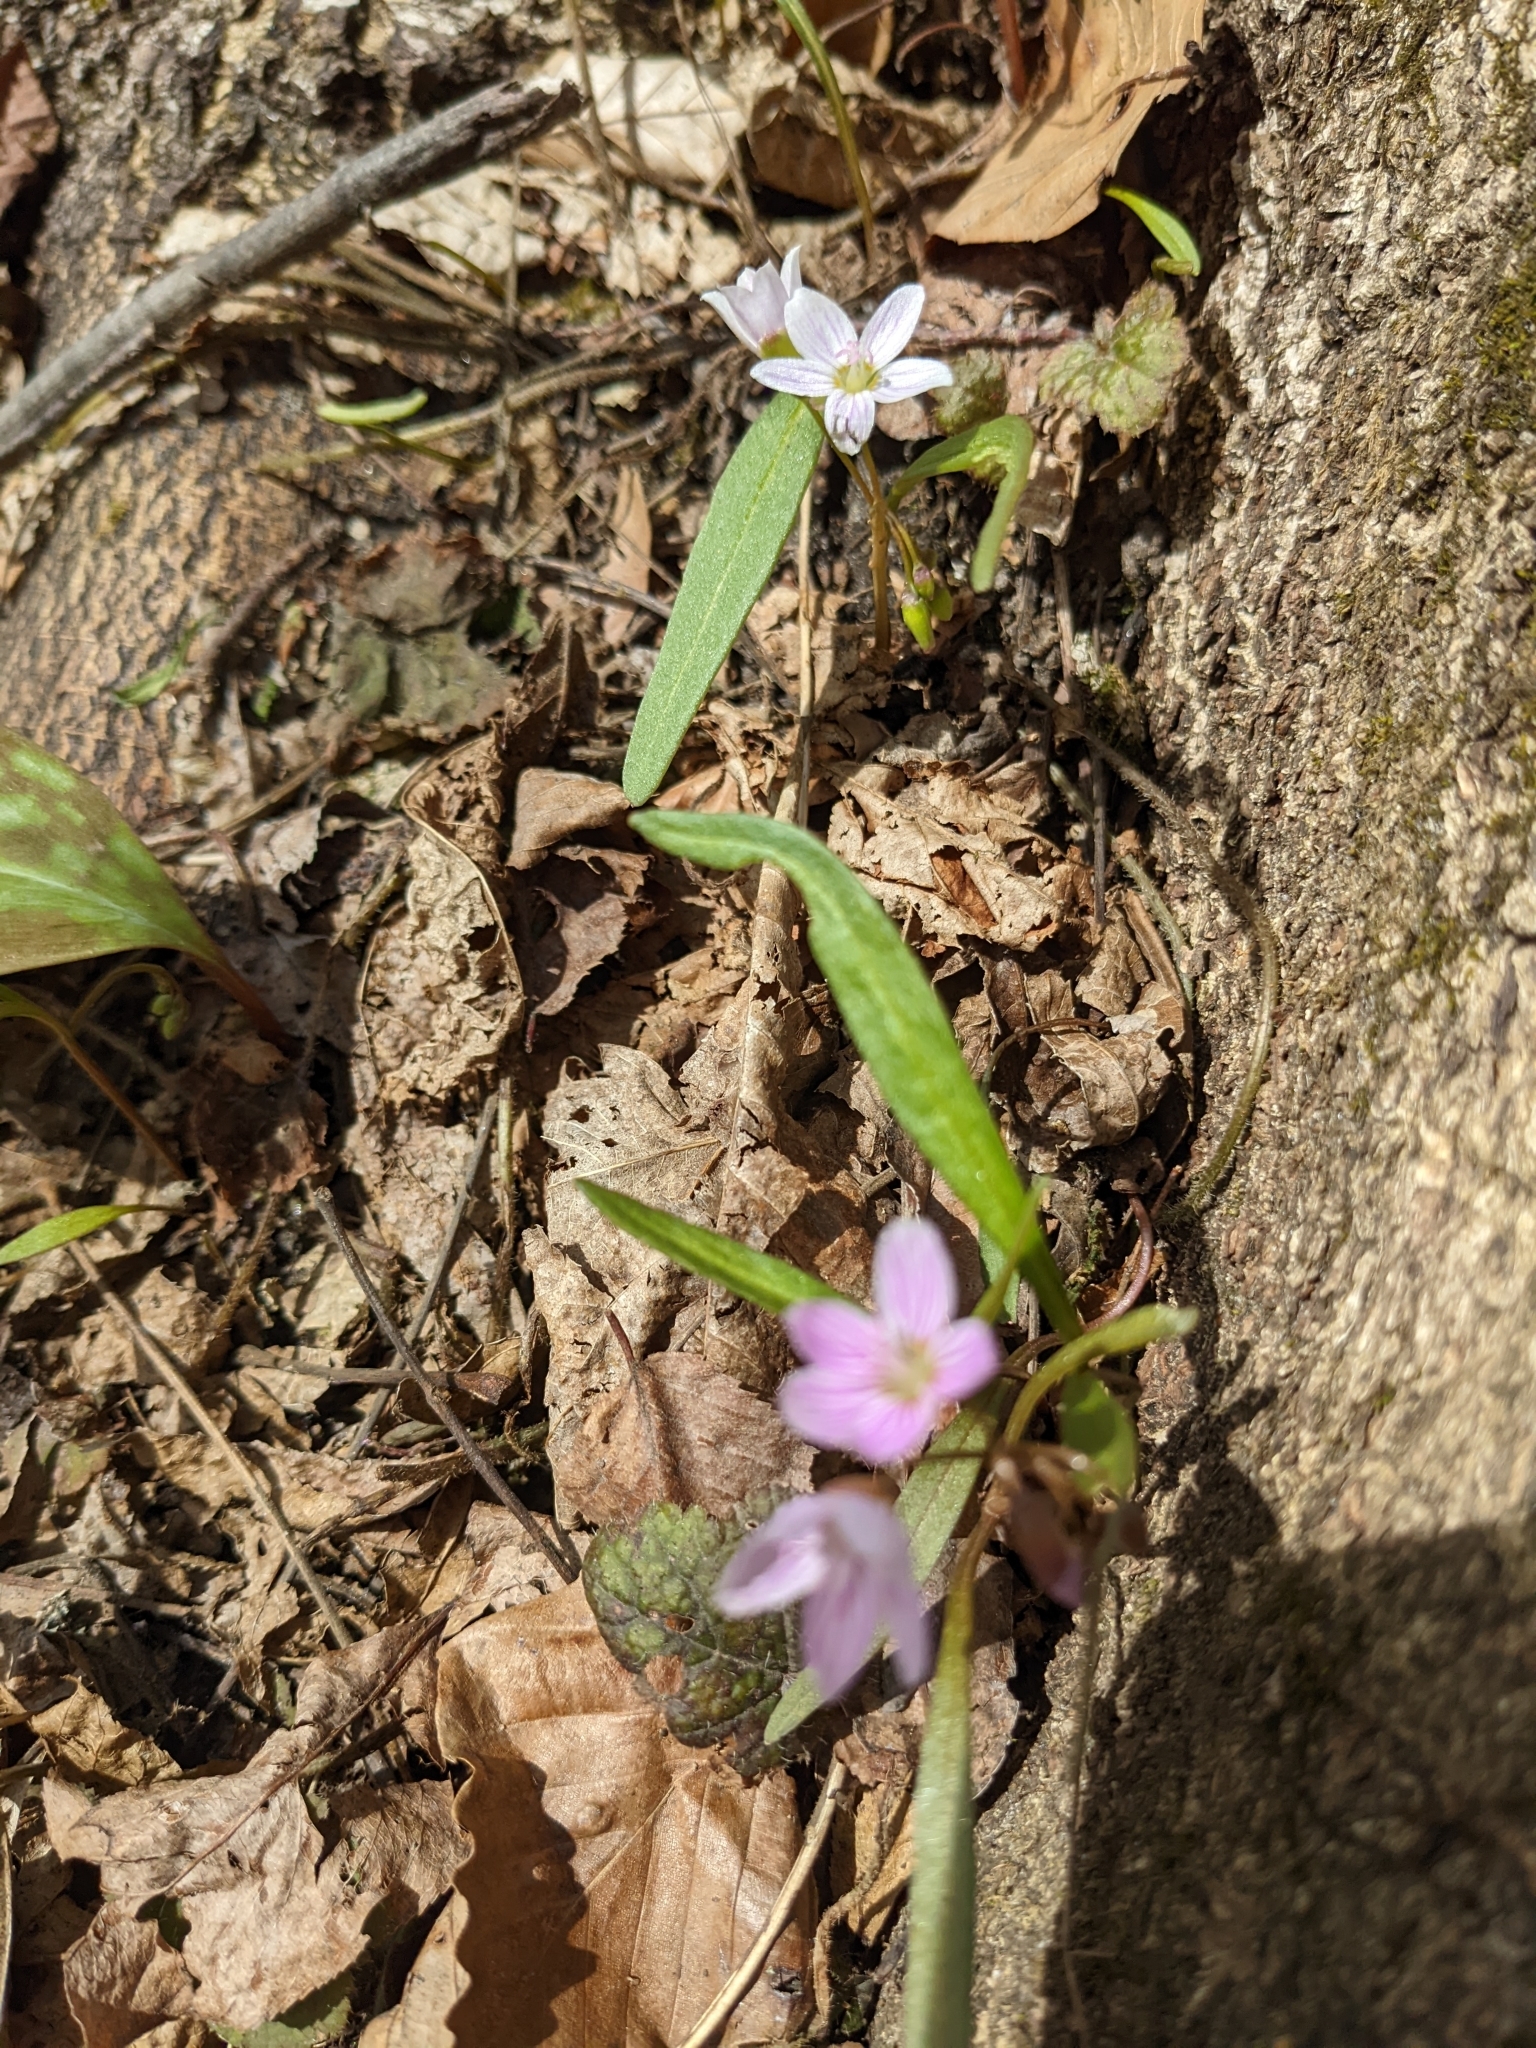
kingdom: Plantae
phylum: Tracheophyta
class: Magnoliopsida
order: Caryophyllales
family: Montiaceae
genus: Claytonia
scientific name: Claytonia virginica
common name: Virginia springbeauty
